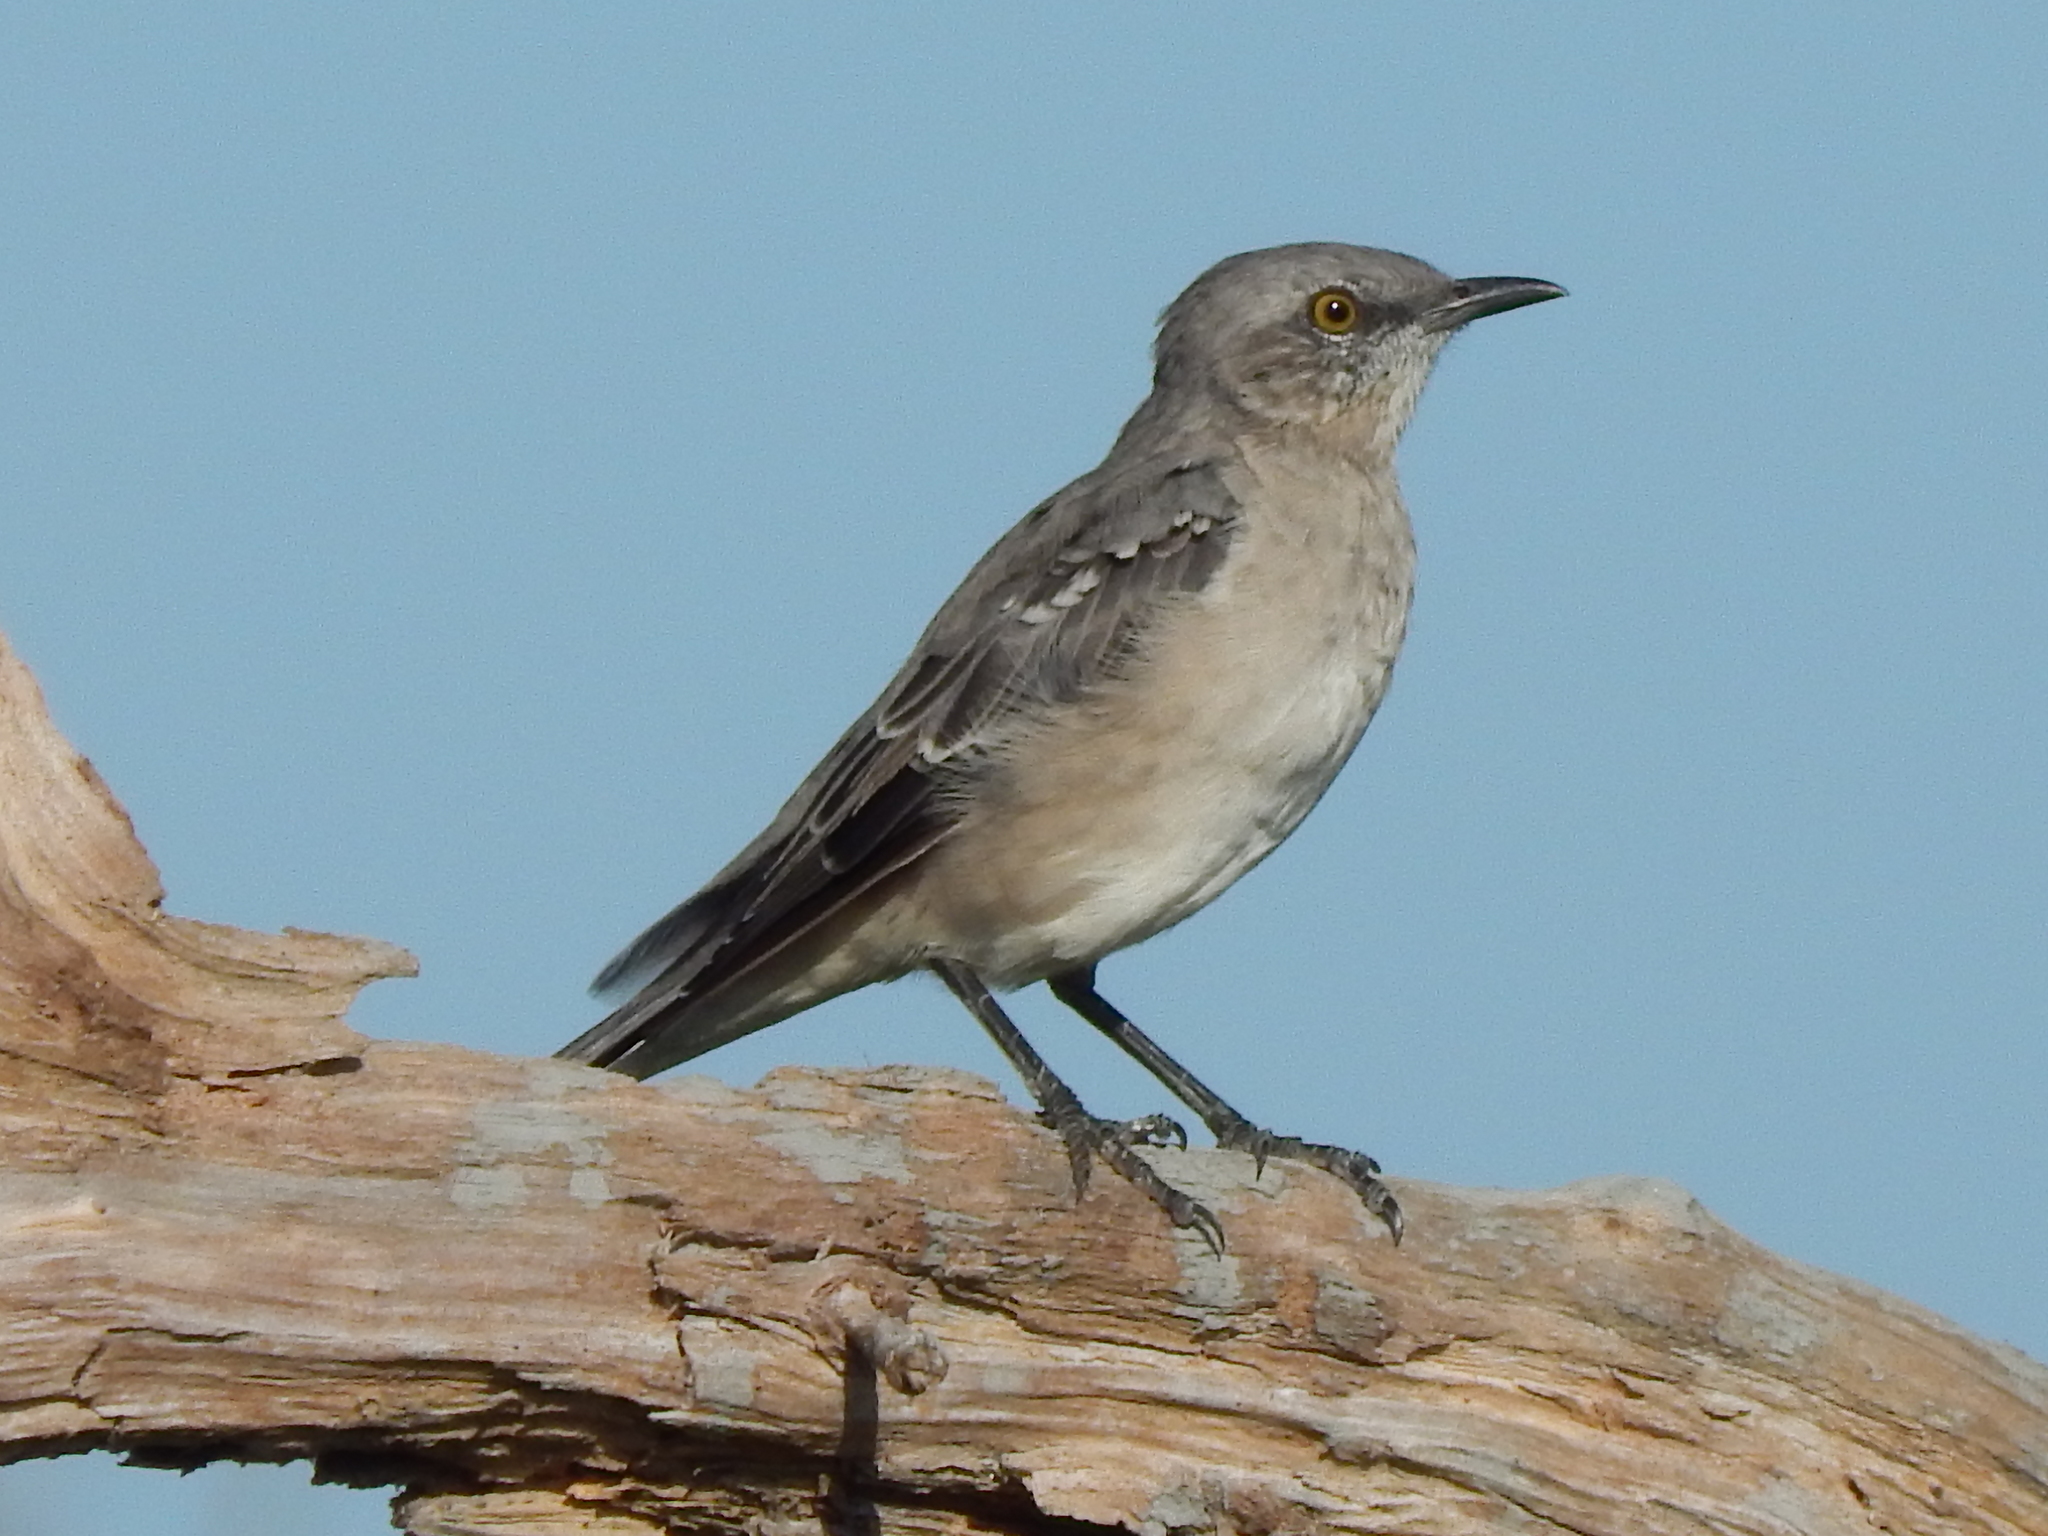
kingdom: Animalia
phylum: Chordata
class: Aves
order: Passeriformes
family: Mimidae
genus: Mimus
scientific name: Mimus polyglottos
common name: Northern mockingbird
